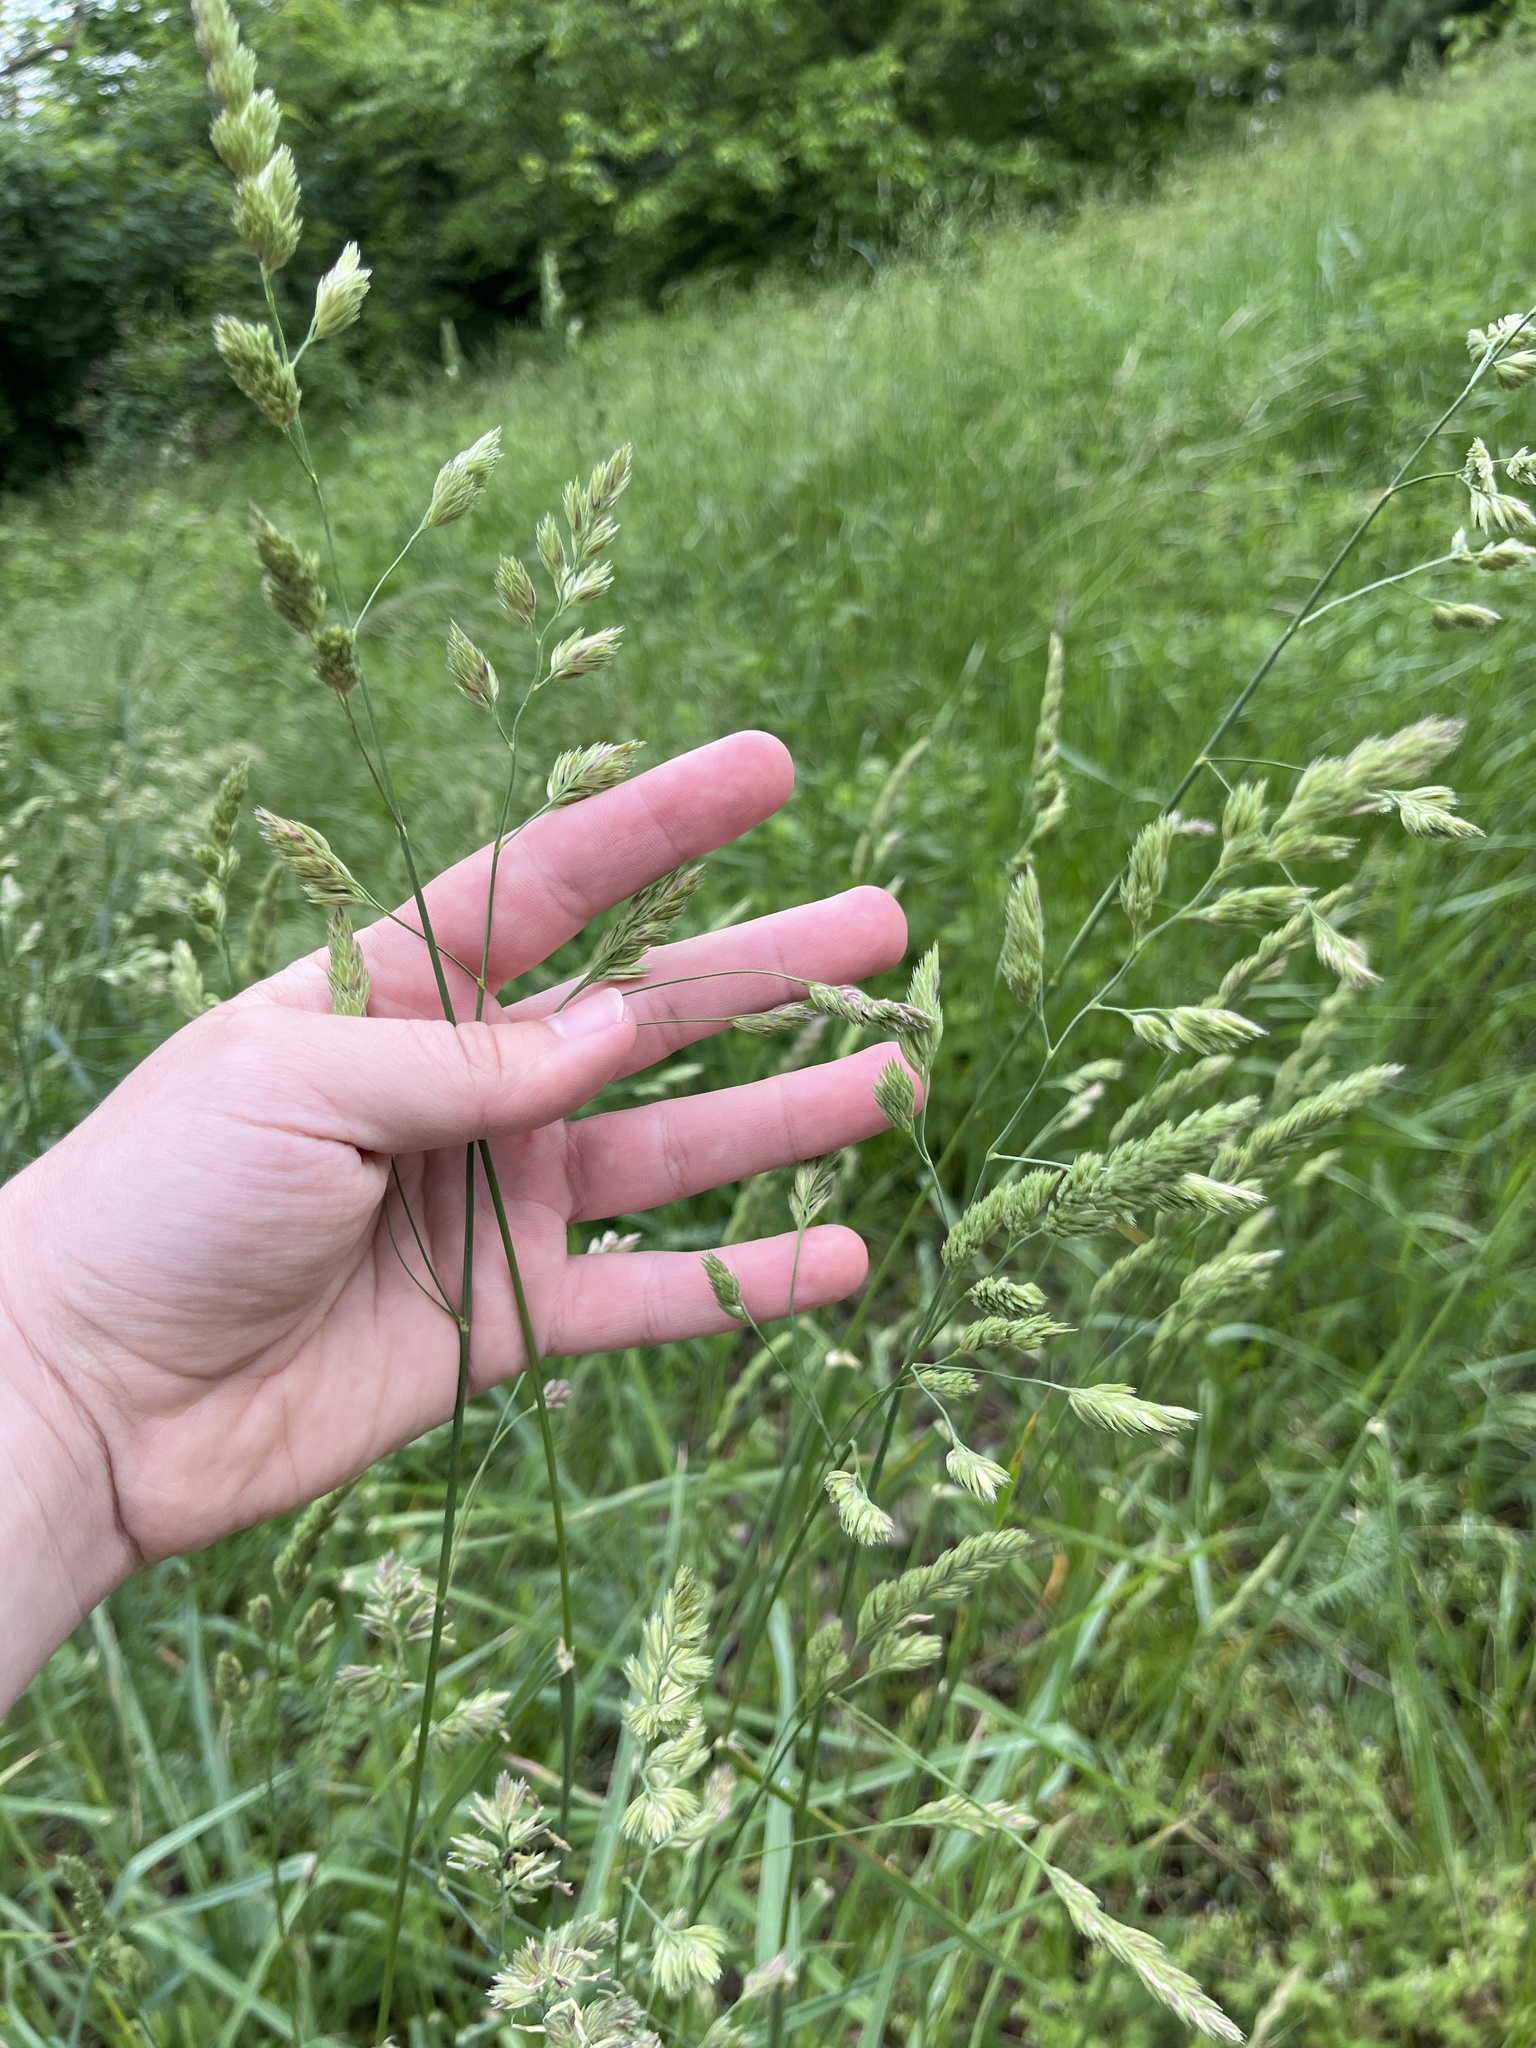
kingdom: Plantae
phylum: Tracheophyta
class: Liliopsida
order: Poales
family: Poaceae
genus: Dactylis
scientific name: Dactylis glomerata
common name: Orchardgrass
